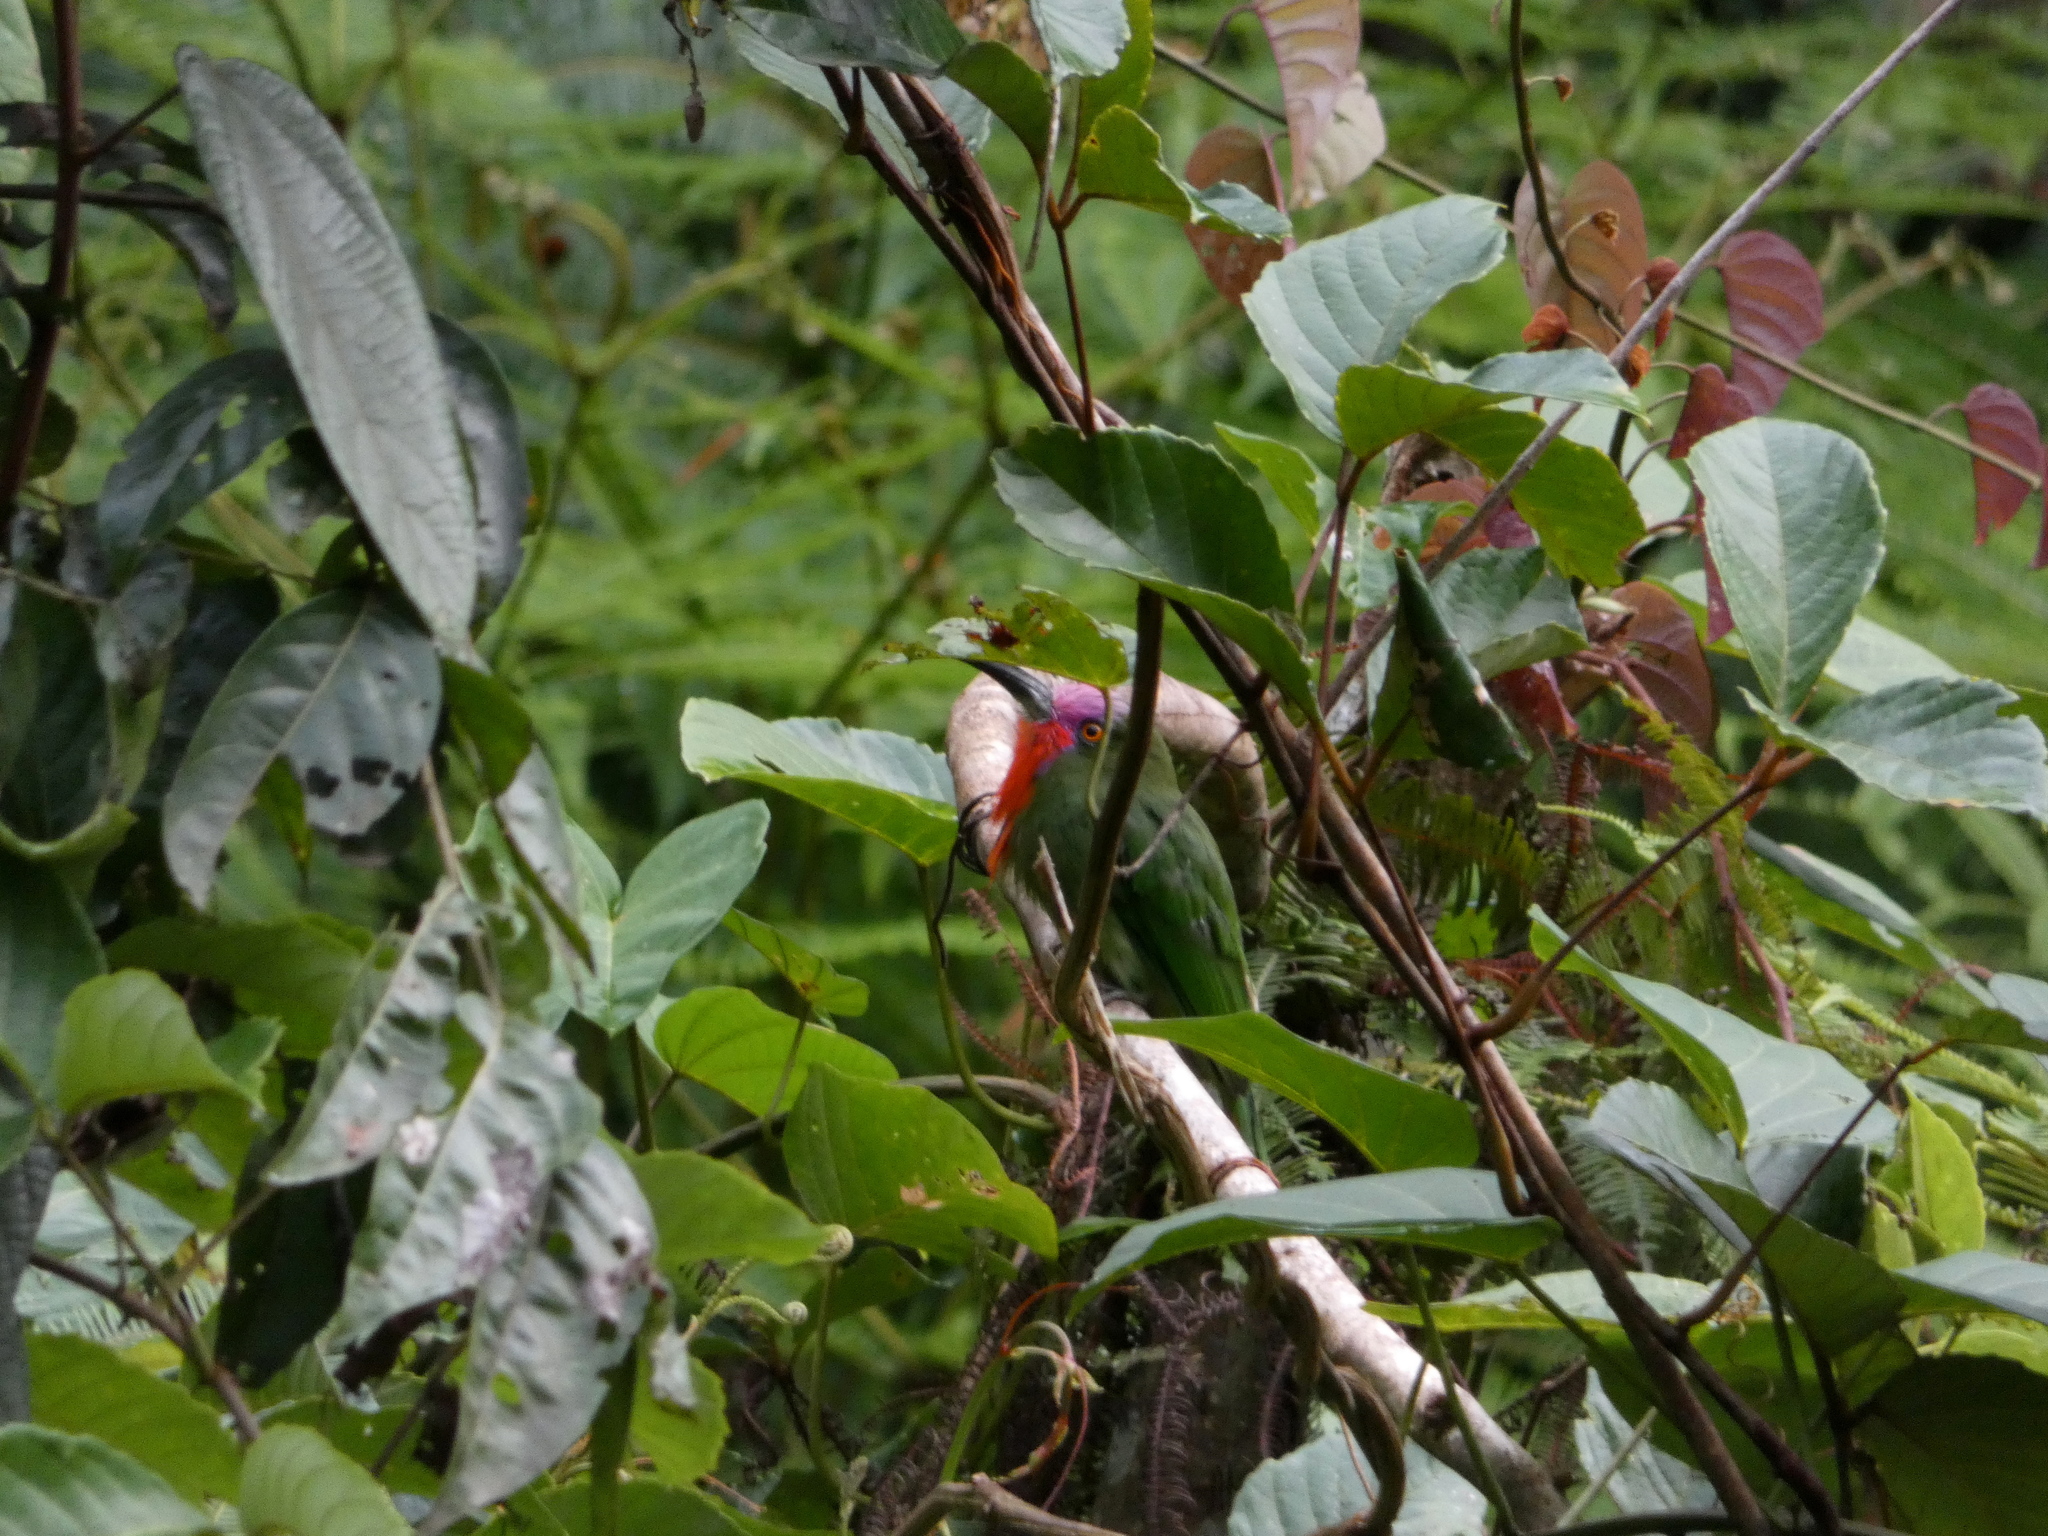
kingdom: Animalia
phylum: Chordata
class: Aves
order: Coraciiformes
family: Meropidae
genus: Nyctyornis
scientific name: Nyctyornis amictus
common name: Red-bearded bee-eater
